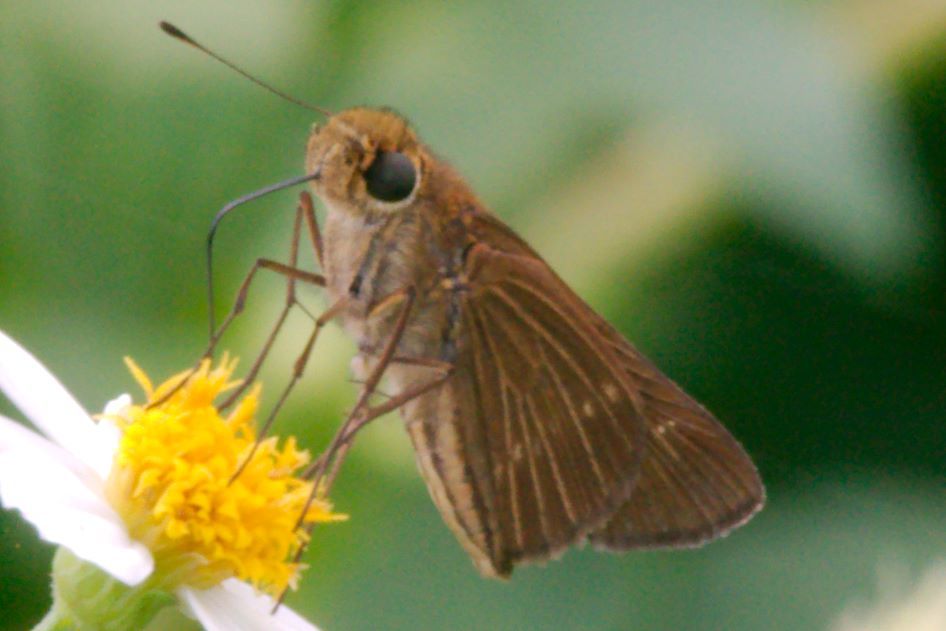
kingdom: Animalia
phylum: Arthropoda
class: Insecta
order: Lepidoptera
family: Hesperiidae
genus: Panoquina
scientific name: Panoquina ocola
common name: Ocola skipper
